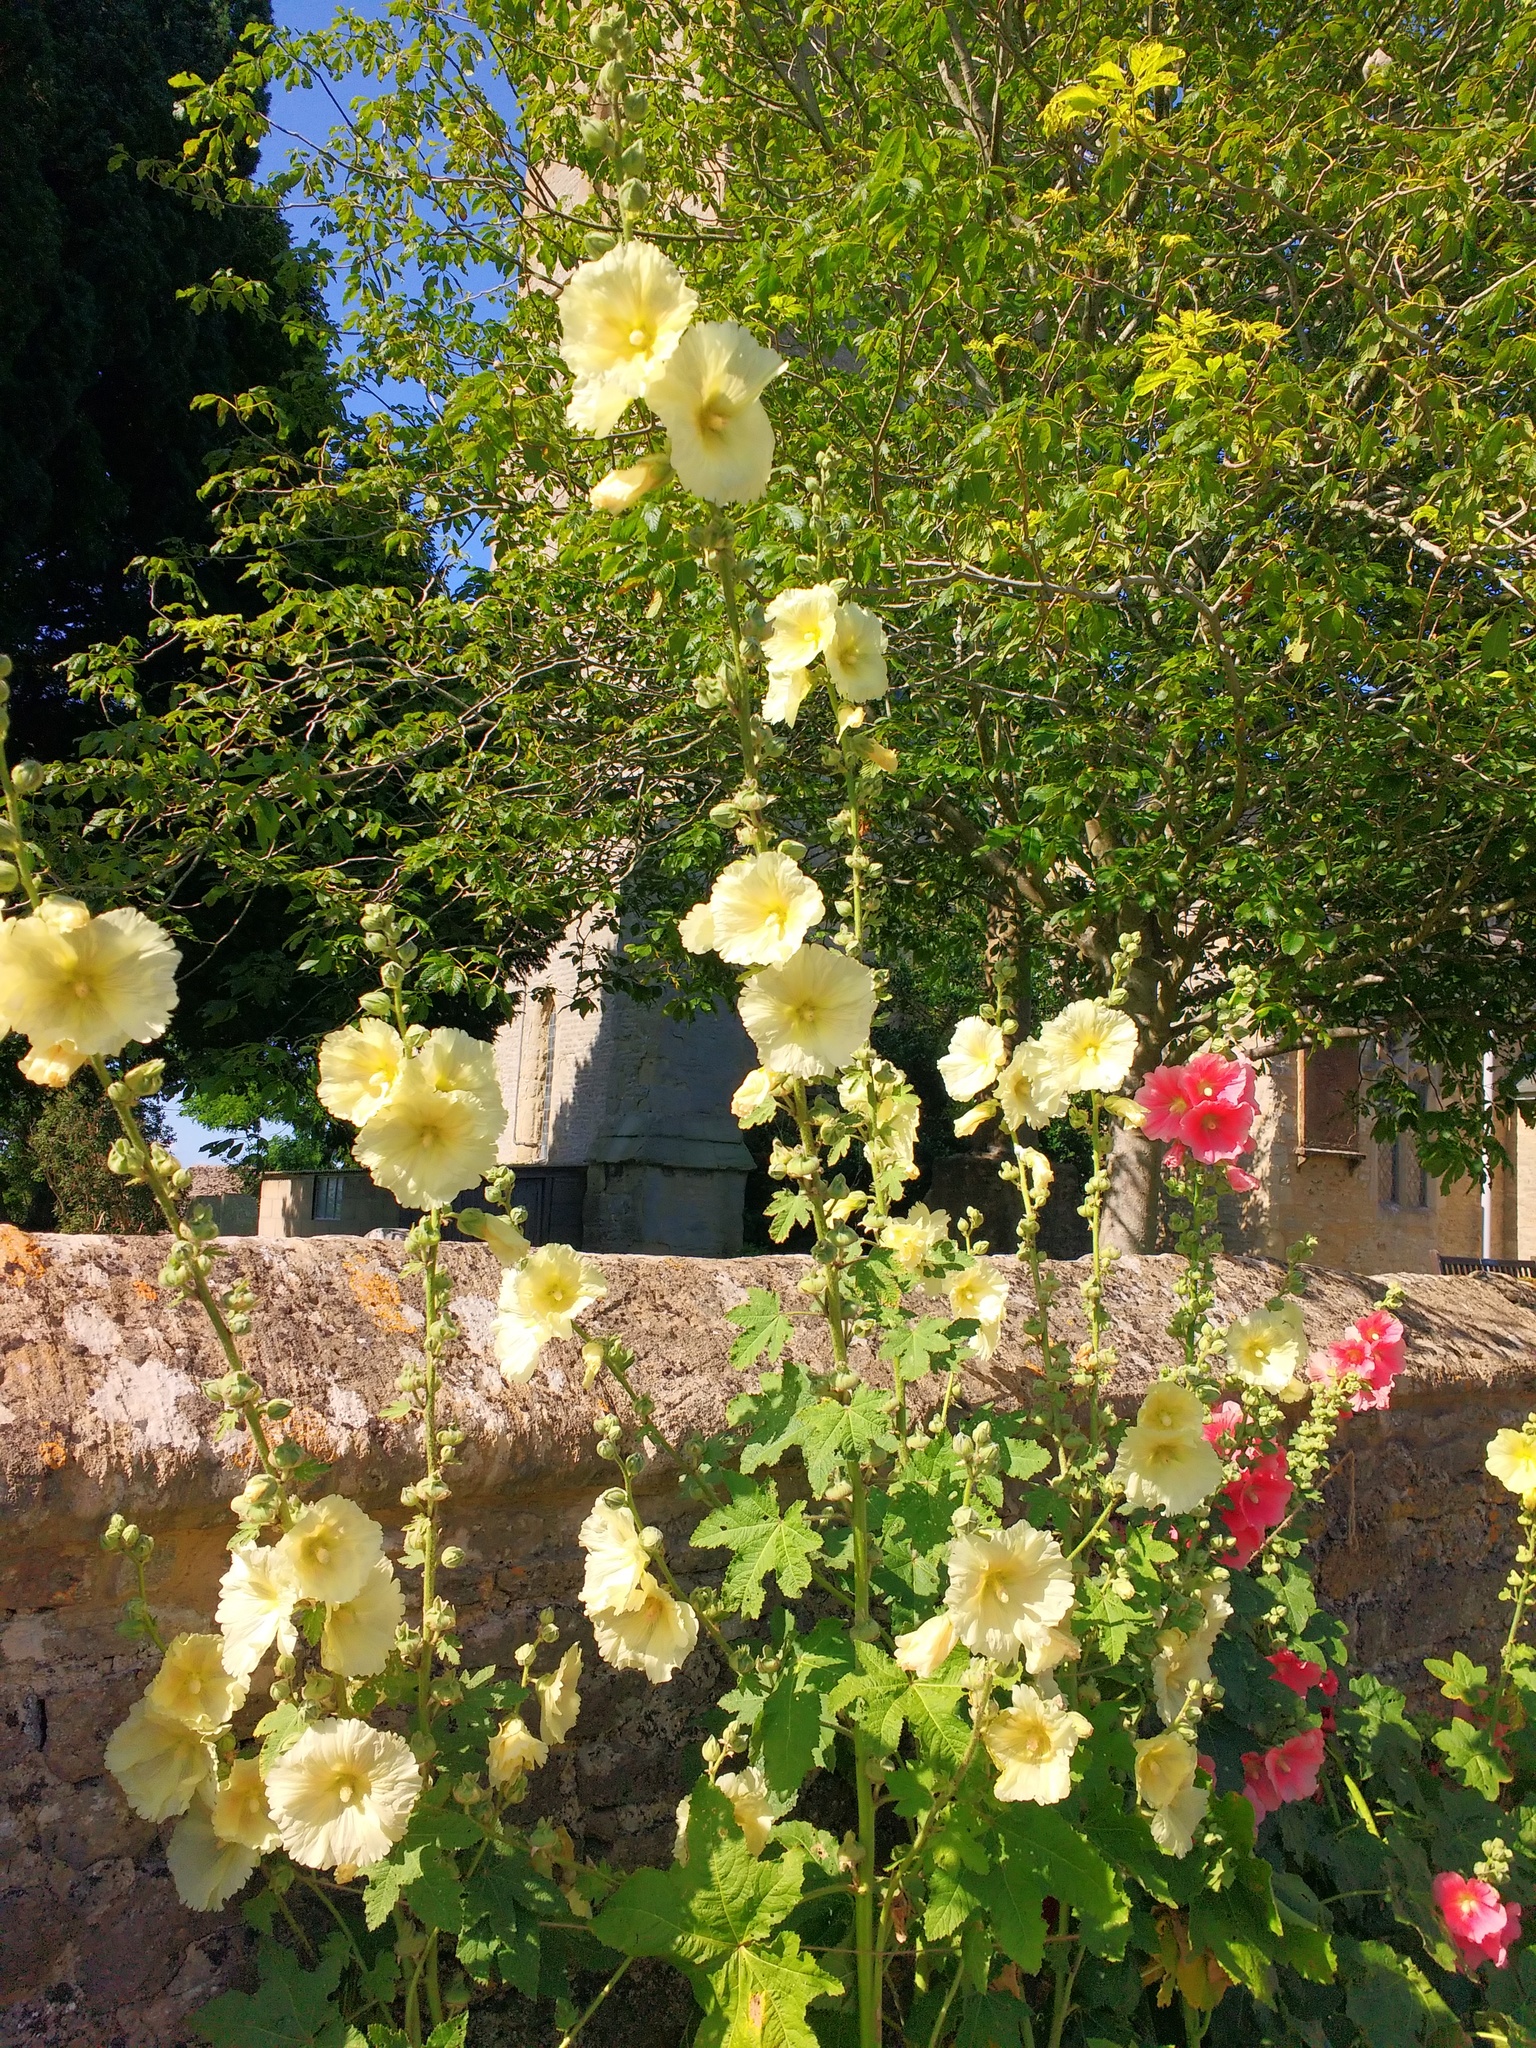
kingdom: Plantae
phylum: Tracheophyta
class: Magnoliopsida
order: Malvales
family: Malvaceae
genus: Alcea
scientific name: Alcea rosea
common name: Hollyhock
